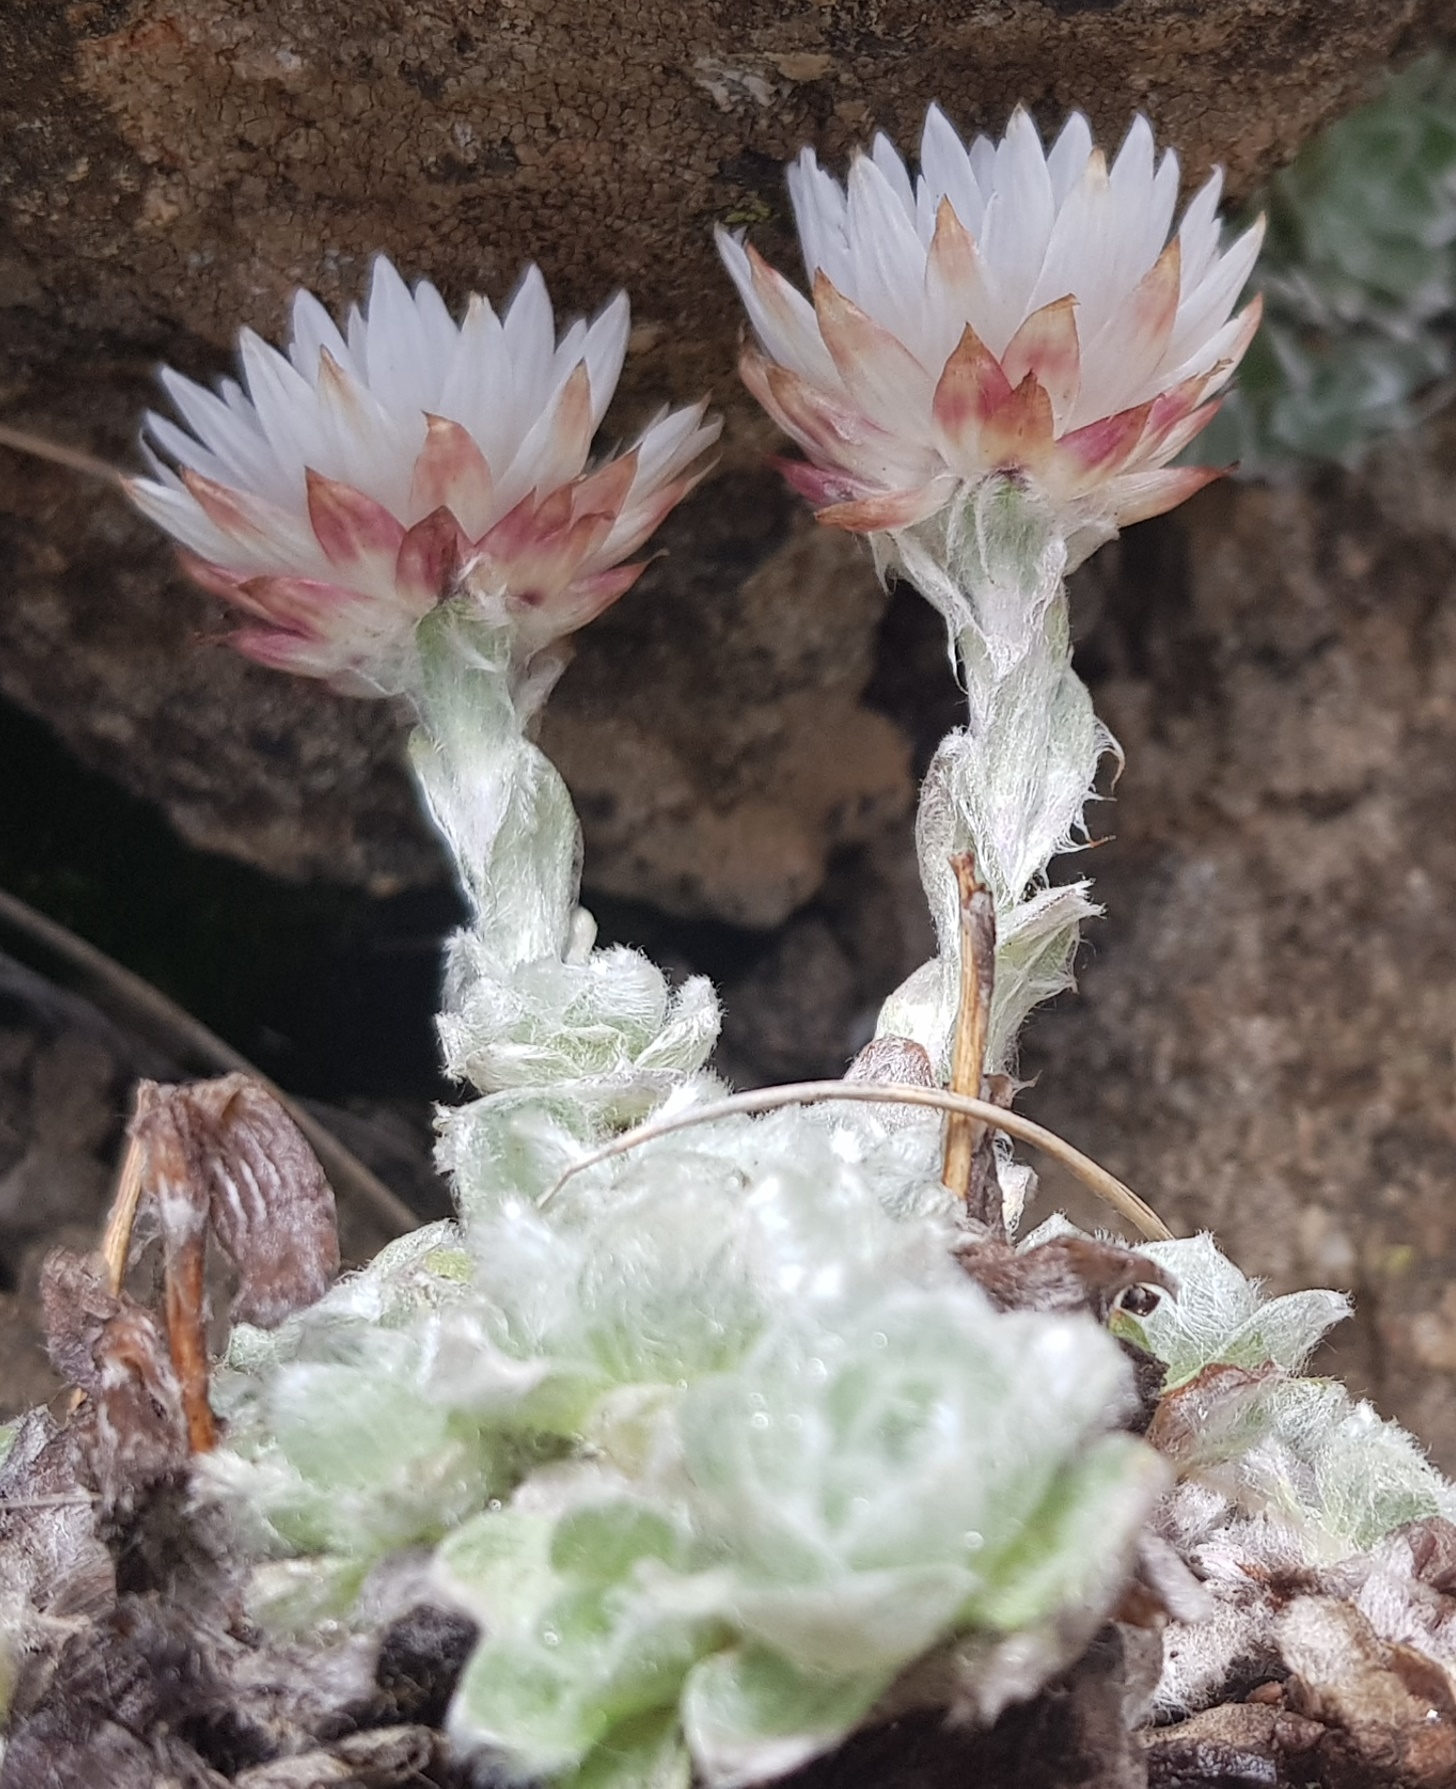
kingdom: Plantae
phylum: Tracheophyta
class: Magnoliopsida
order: Asterales
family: Asteraceae
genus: Helichrysum
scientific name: Helichrysum milfordiae
